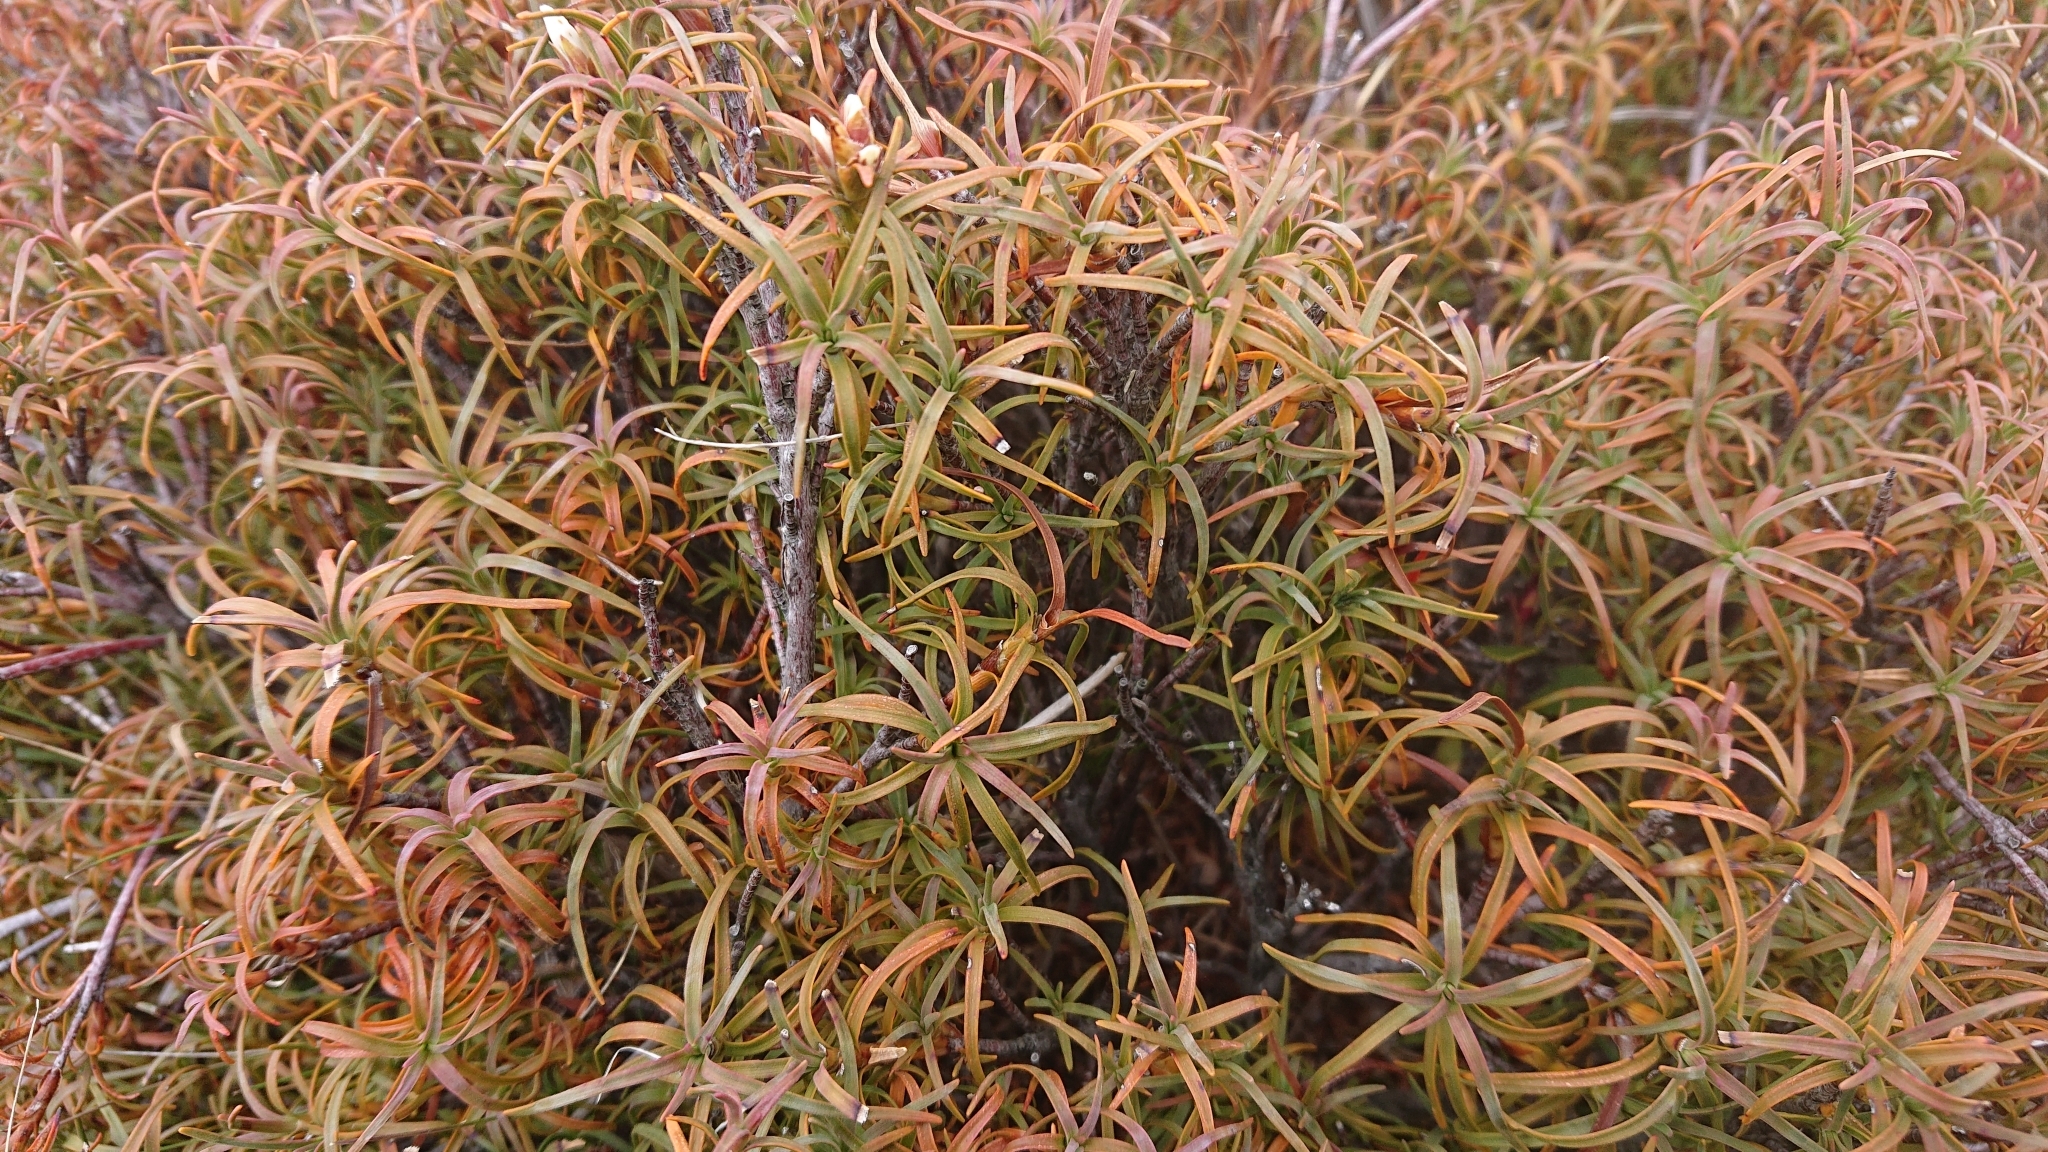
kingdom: Plantae
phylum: Tracheophyta
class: Magnoliopsida
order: Ericales
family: Ericaceae
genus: Dracophyllum
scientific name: Dracophyllum recurvum
